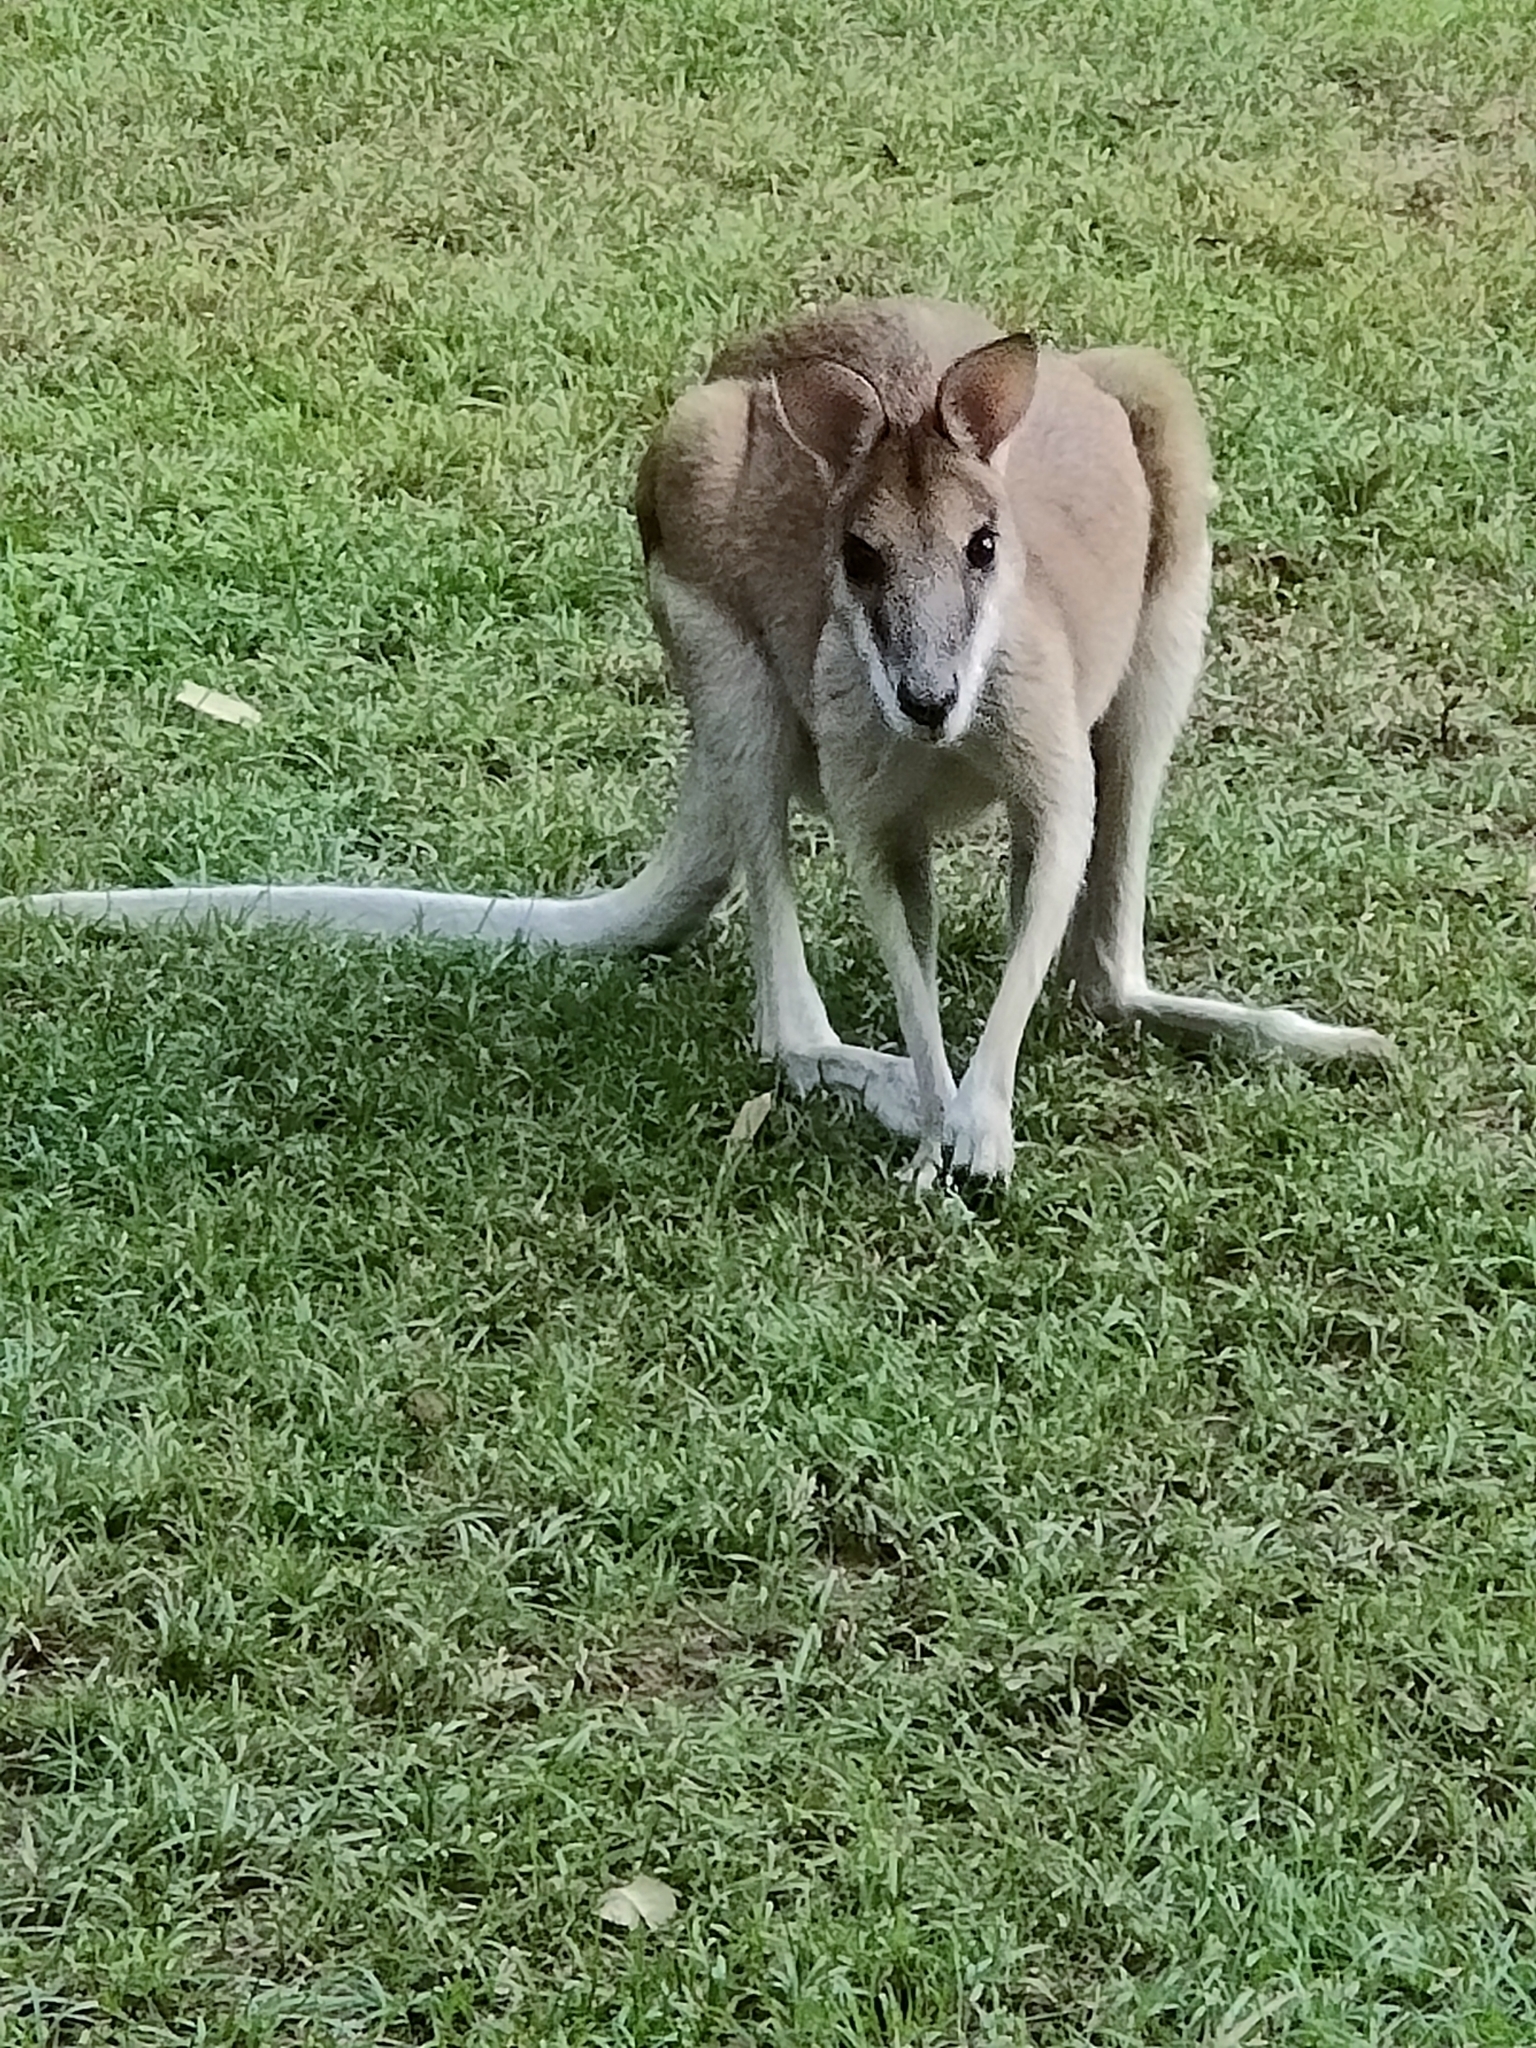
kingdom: Animalia
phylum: Chordata
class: Mammalia
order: Diprotodontia
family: Macropodidae
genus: Macropus
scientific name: Macropus agilis
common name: Agile wallaby
